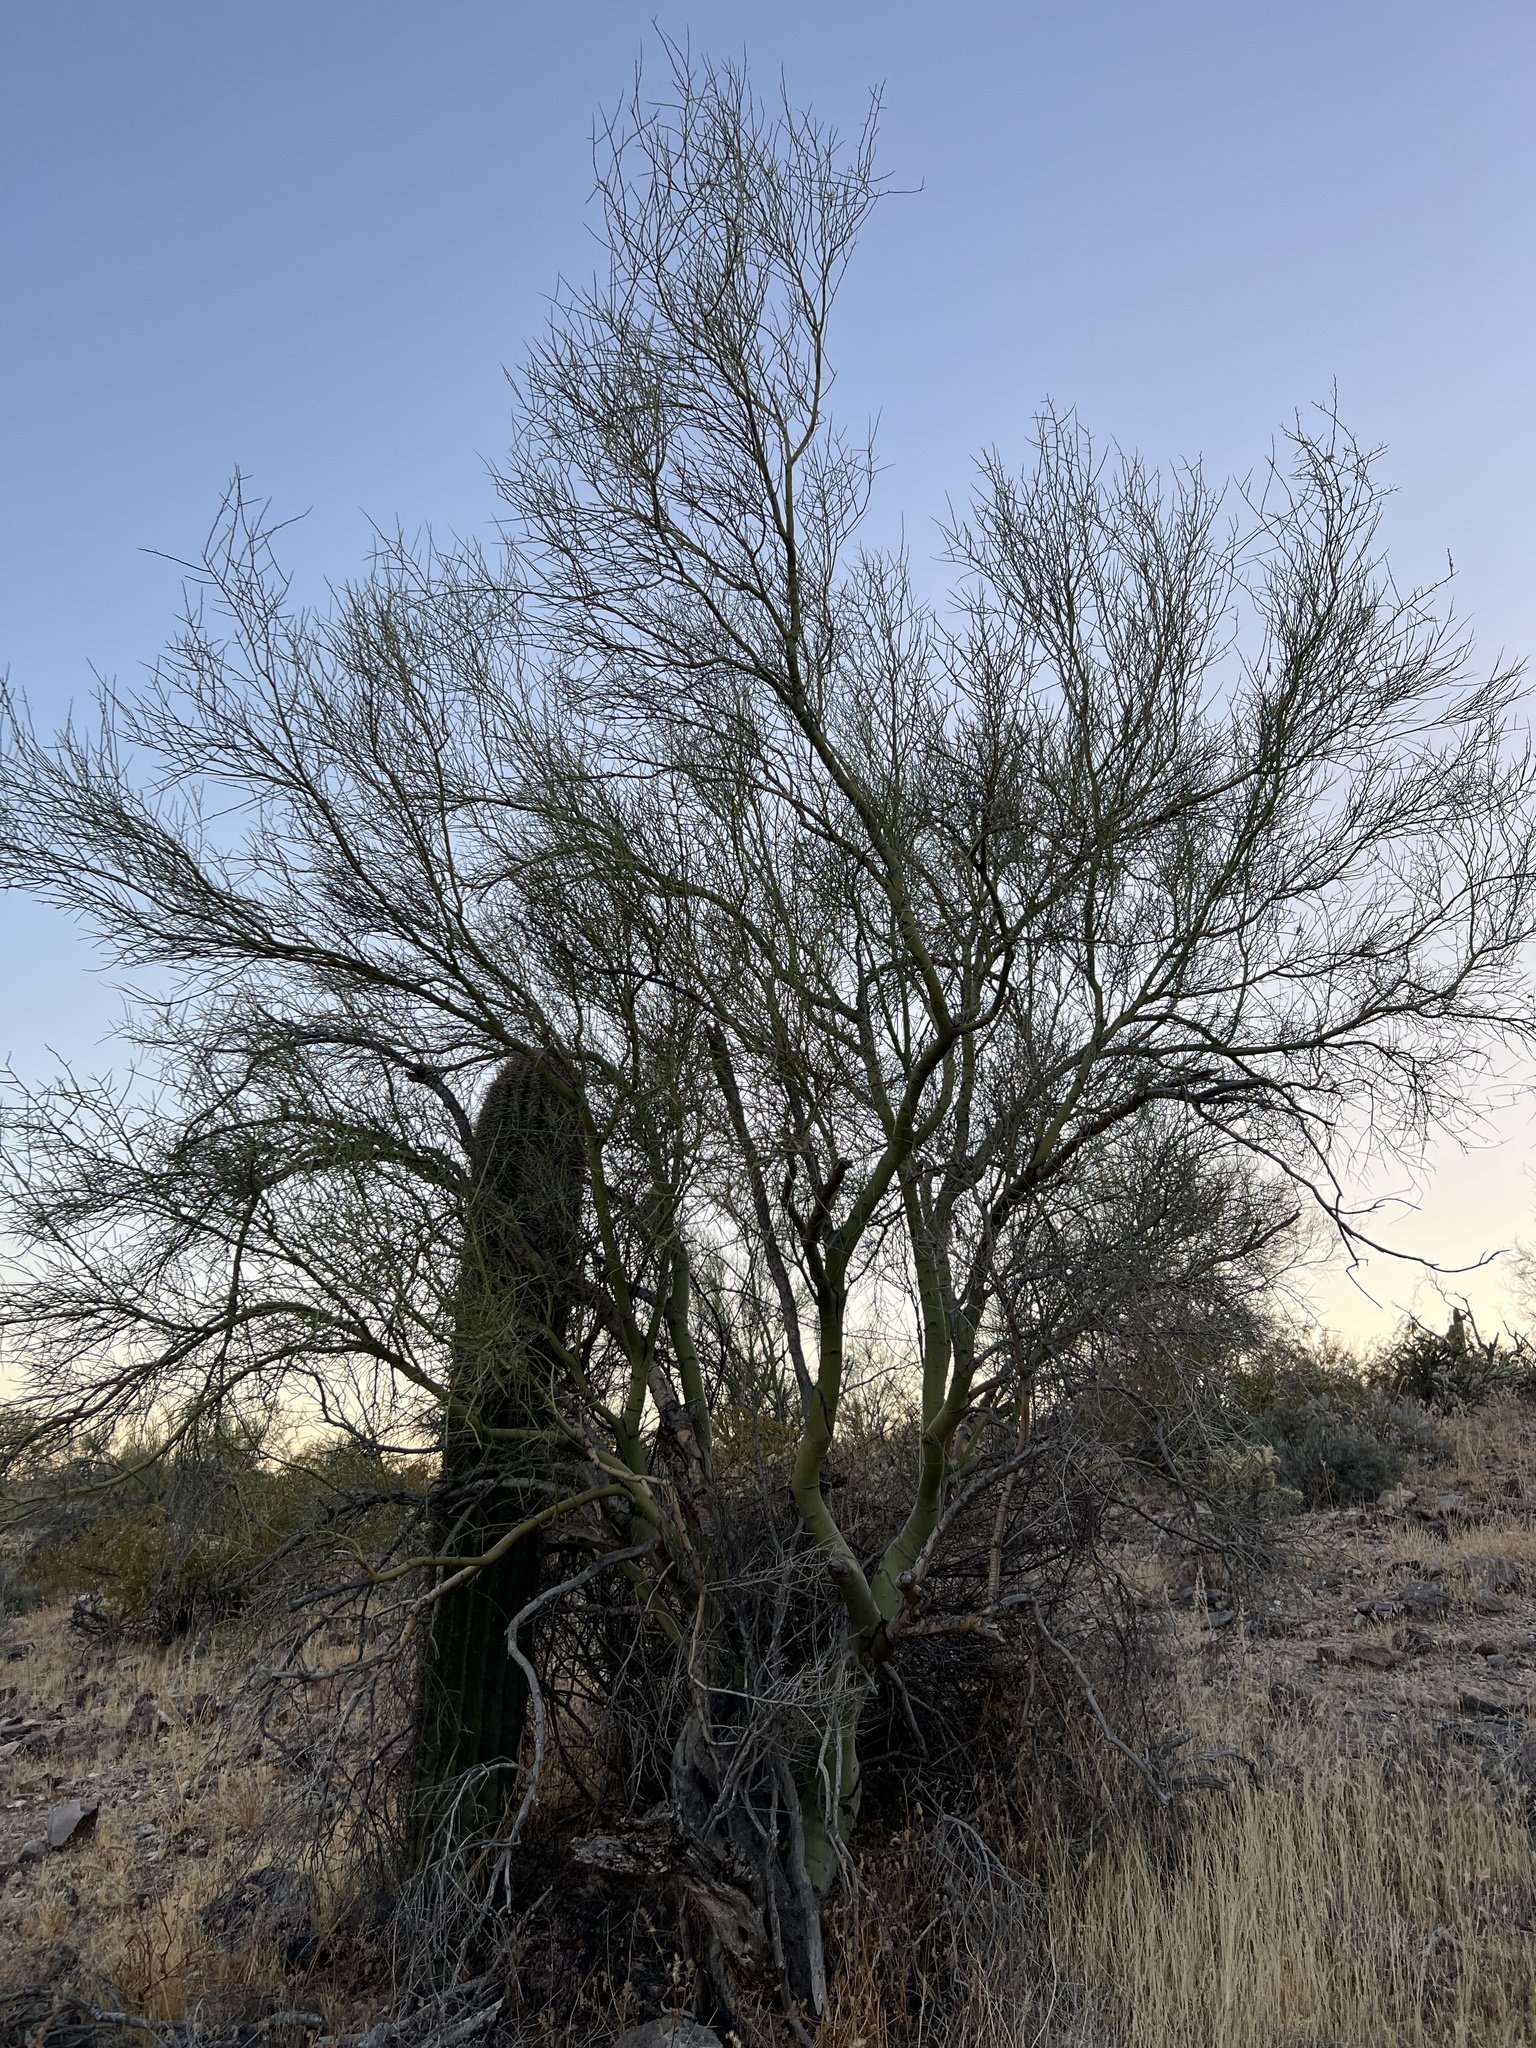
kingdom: Plantae
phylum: Tracheophyta
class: Magnoliopsida
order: Fabales
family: Fabaceae
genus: Parkinsonia
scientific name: Parkinsonia microphylla
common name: Yellow paloverde
